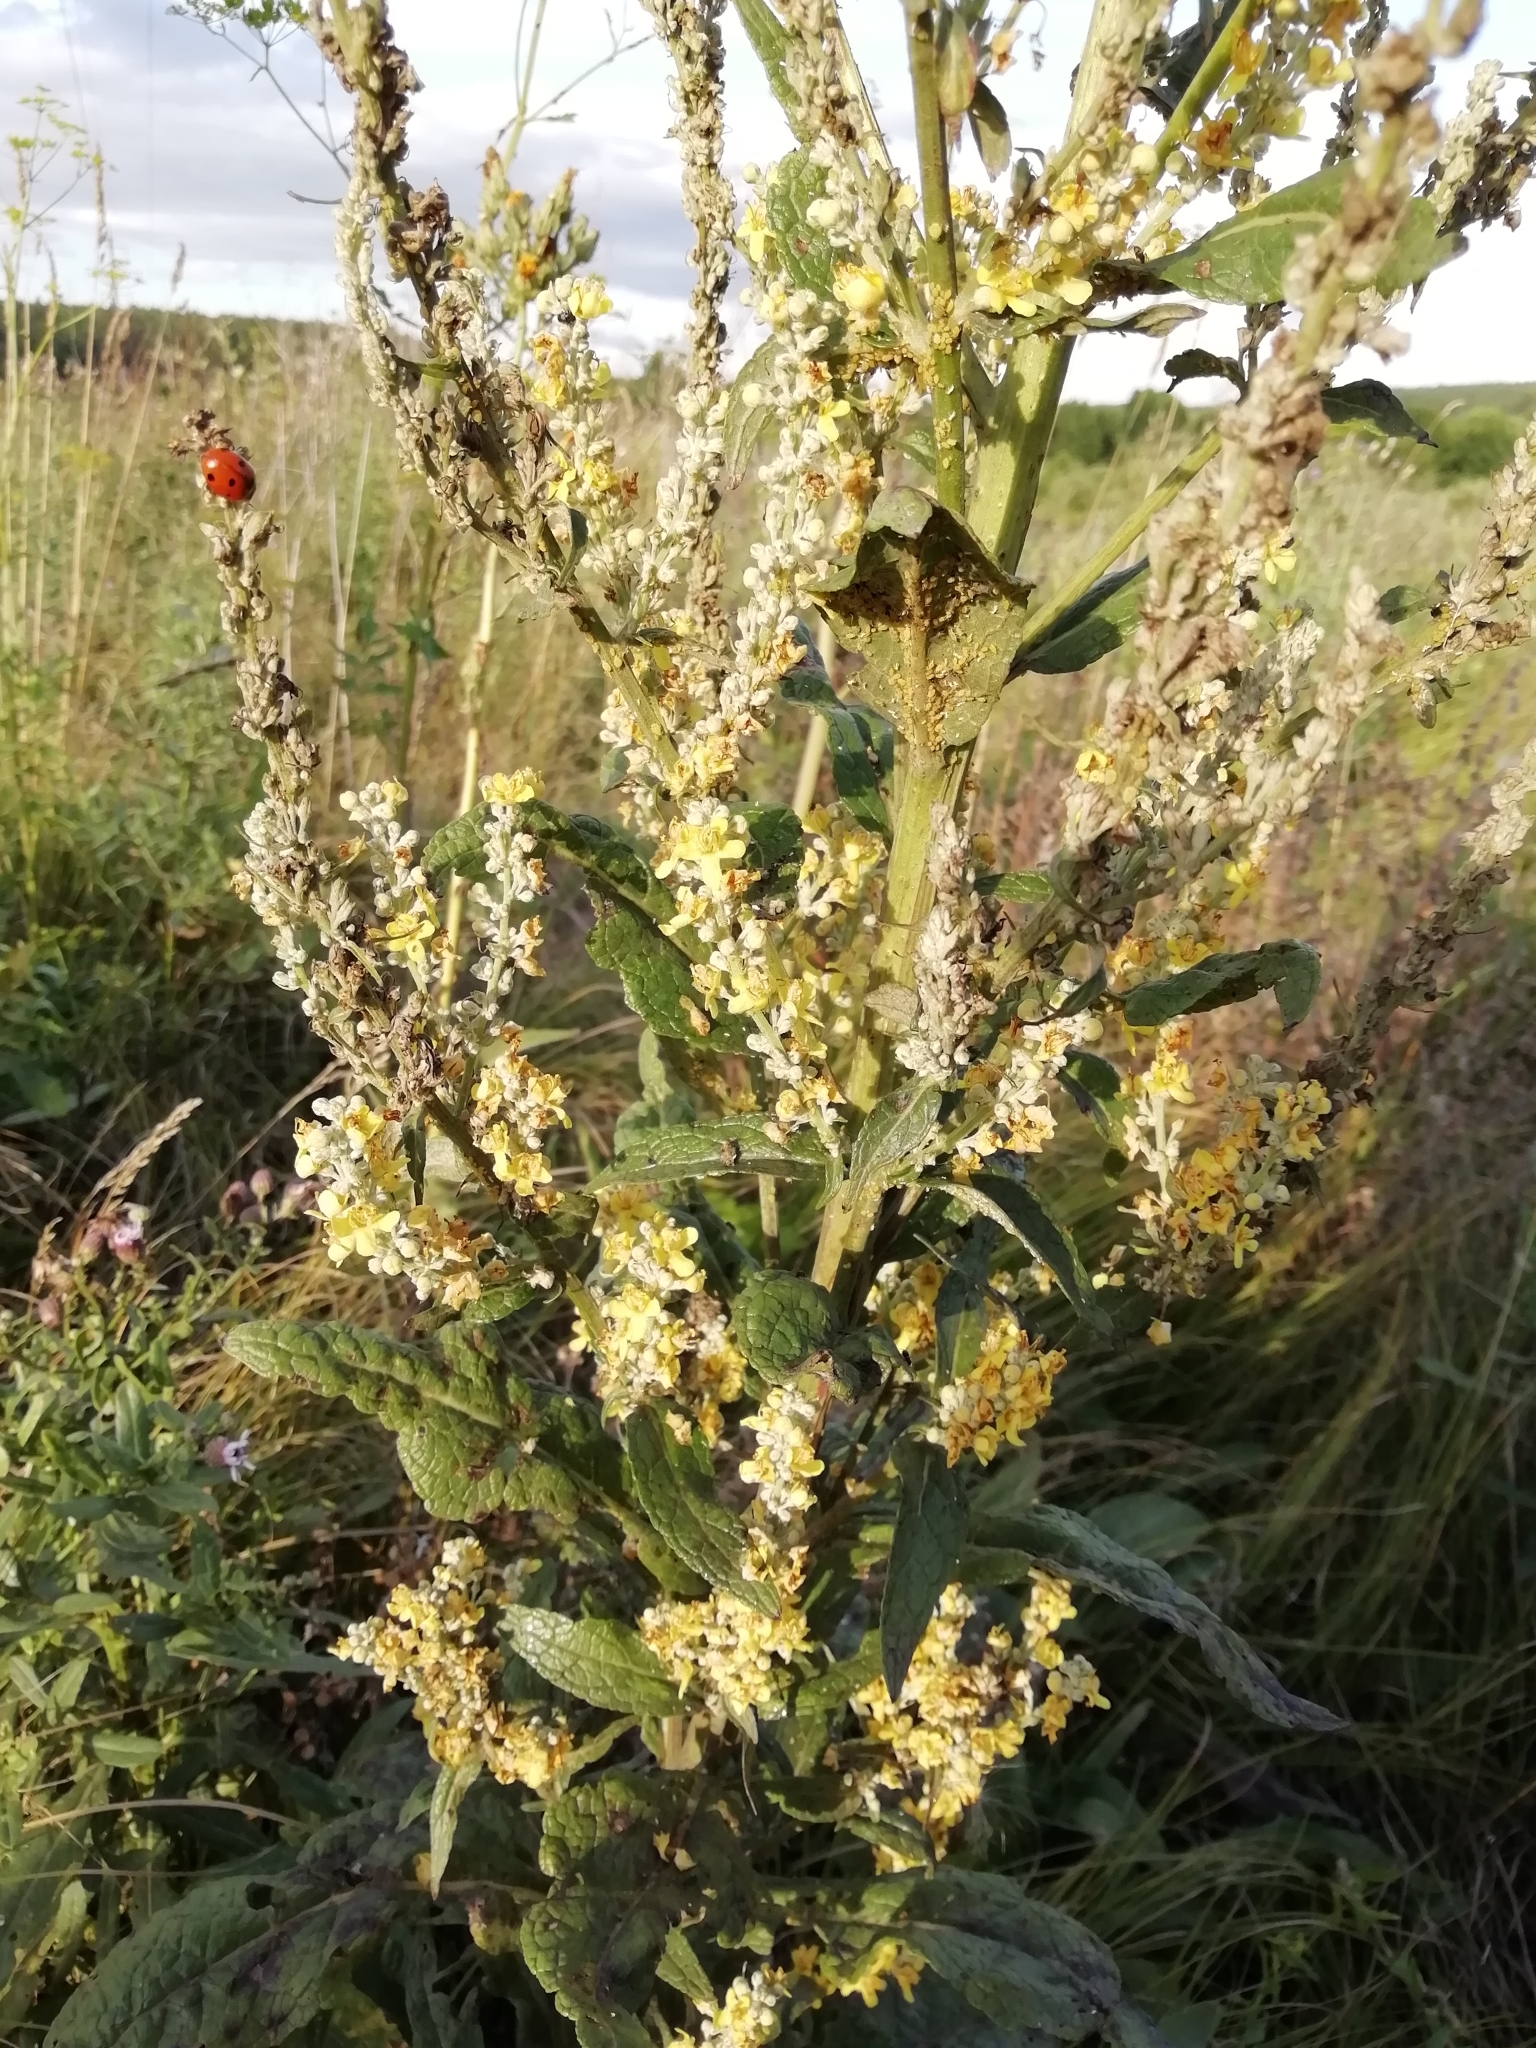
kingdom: Plantae
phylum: Tracheophyta
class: Magnoliopsida
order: Lamiales
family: Scrophulariaceae
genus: Verbascum
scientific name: Verbascum lychnitis
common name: White mullein
